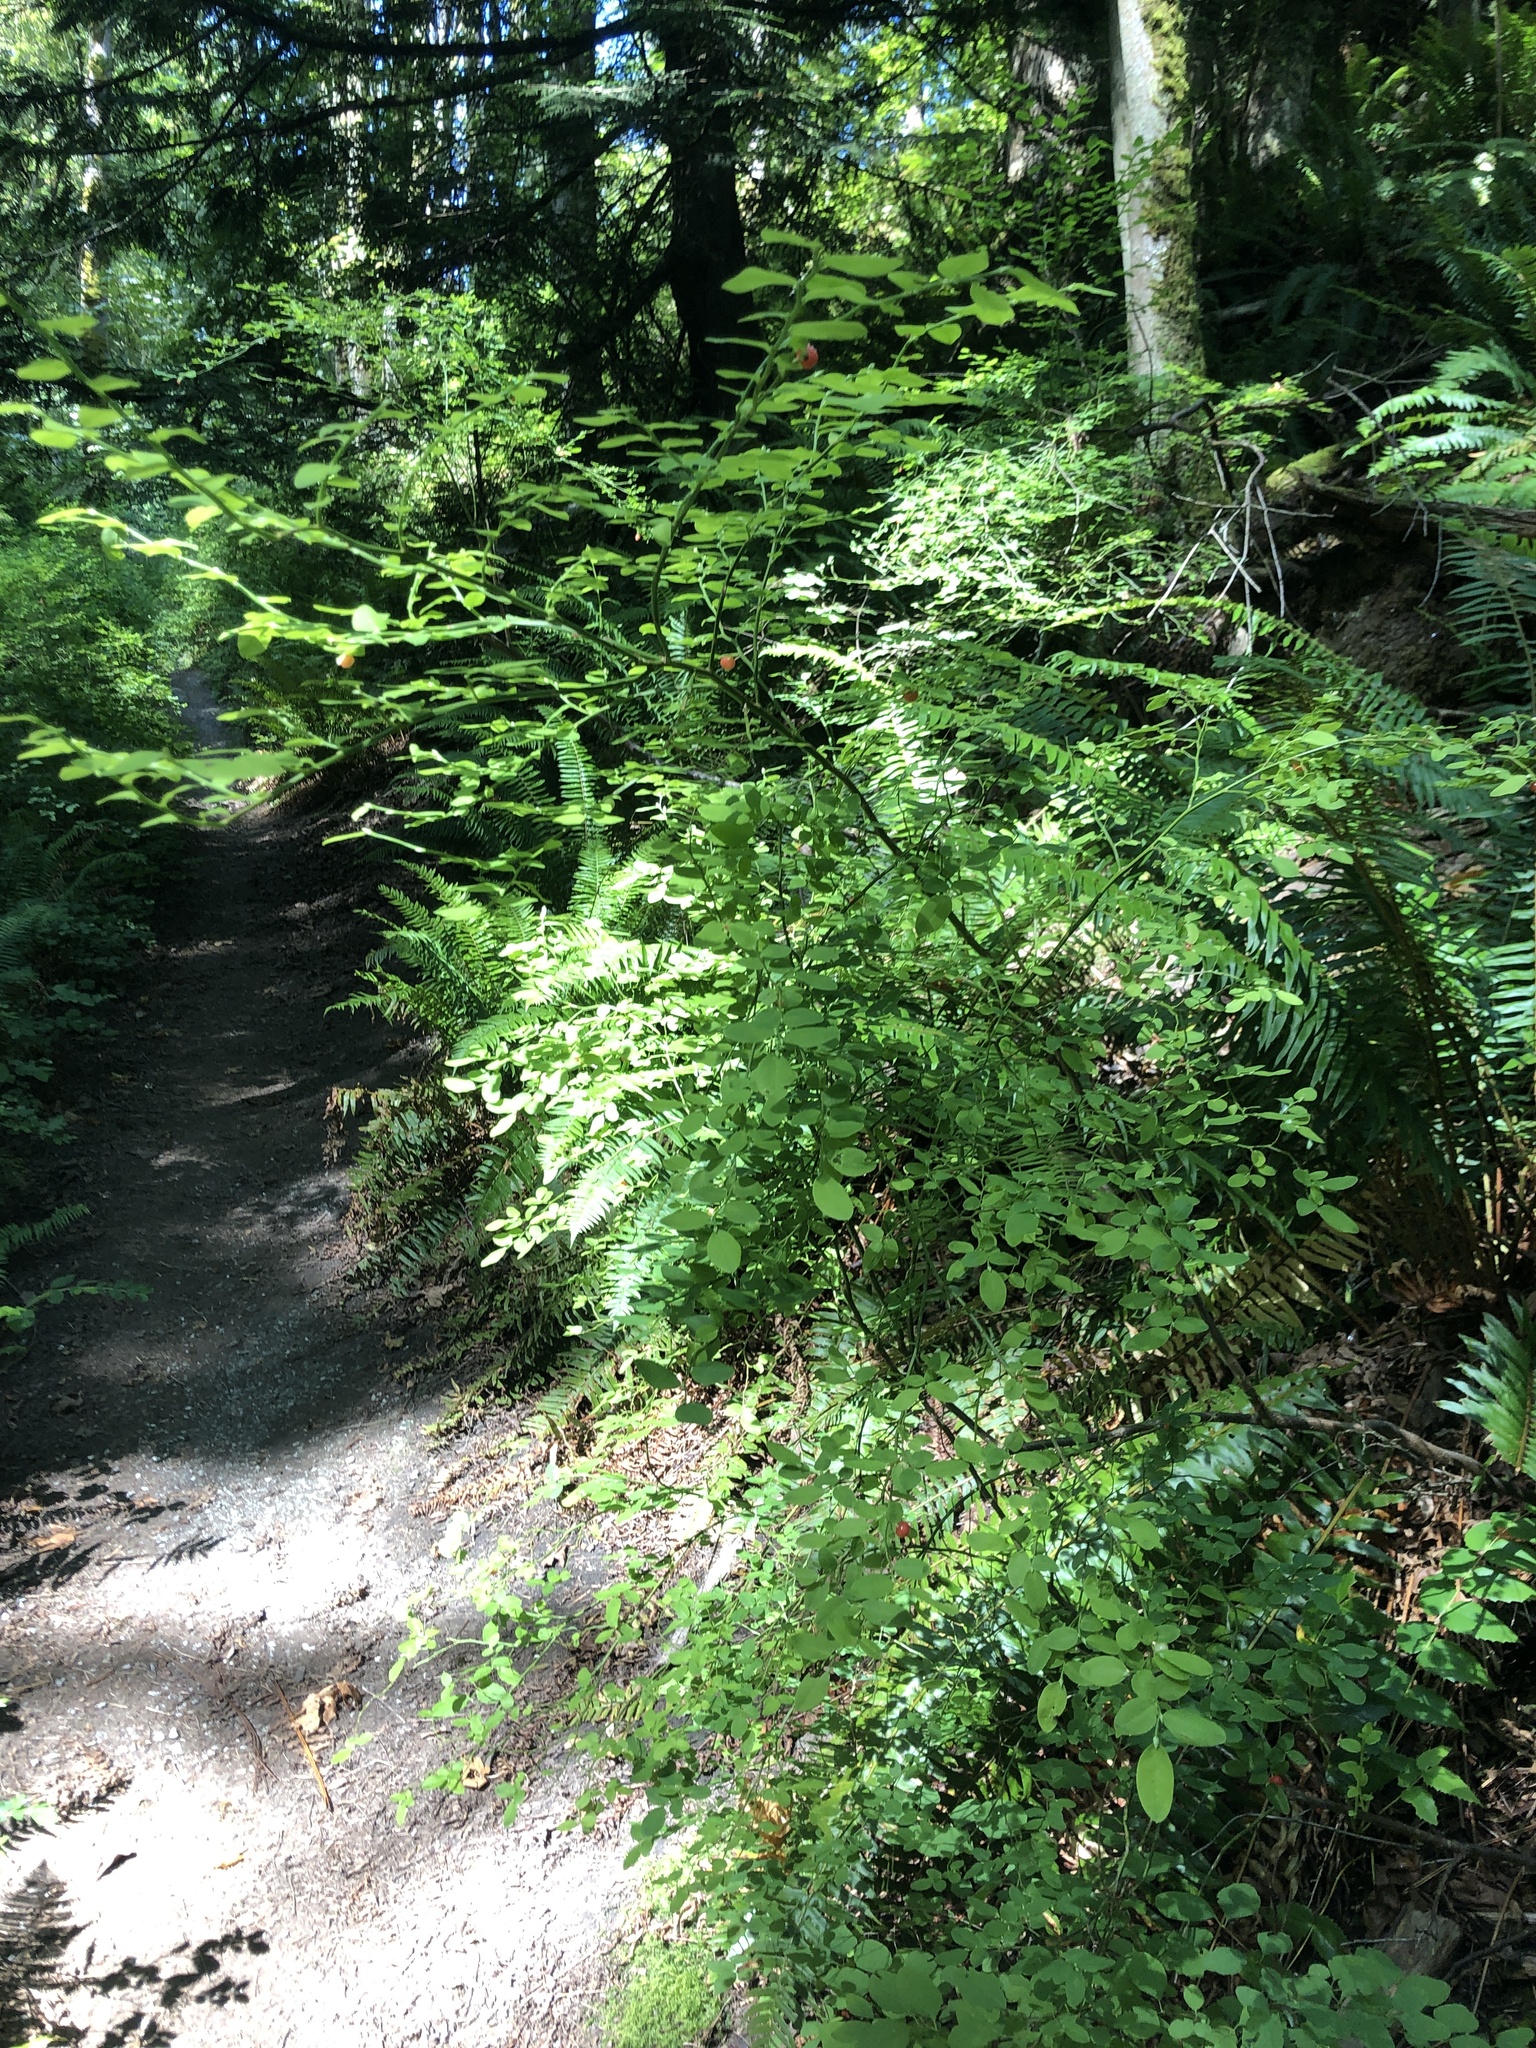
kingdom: Plantae
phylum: Tracheophyta
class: Magnoliopsida
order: Ericales
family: Ericaceae
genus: Vaccinium
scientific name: Vaccinium parvifolium
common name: Red-huckleberry
